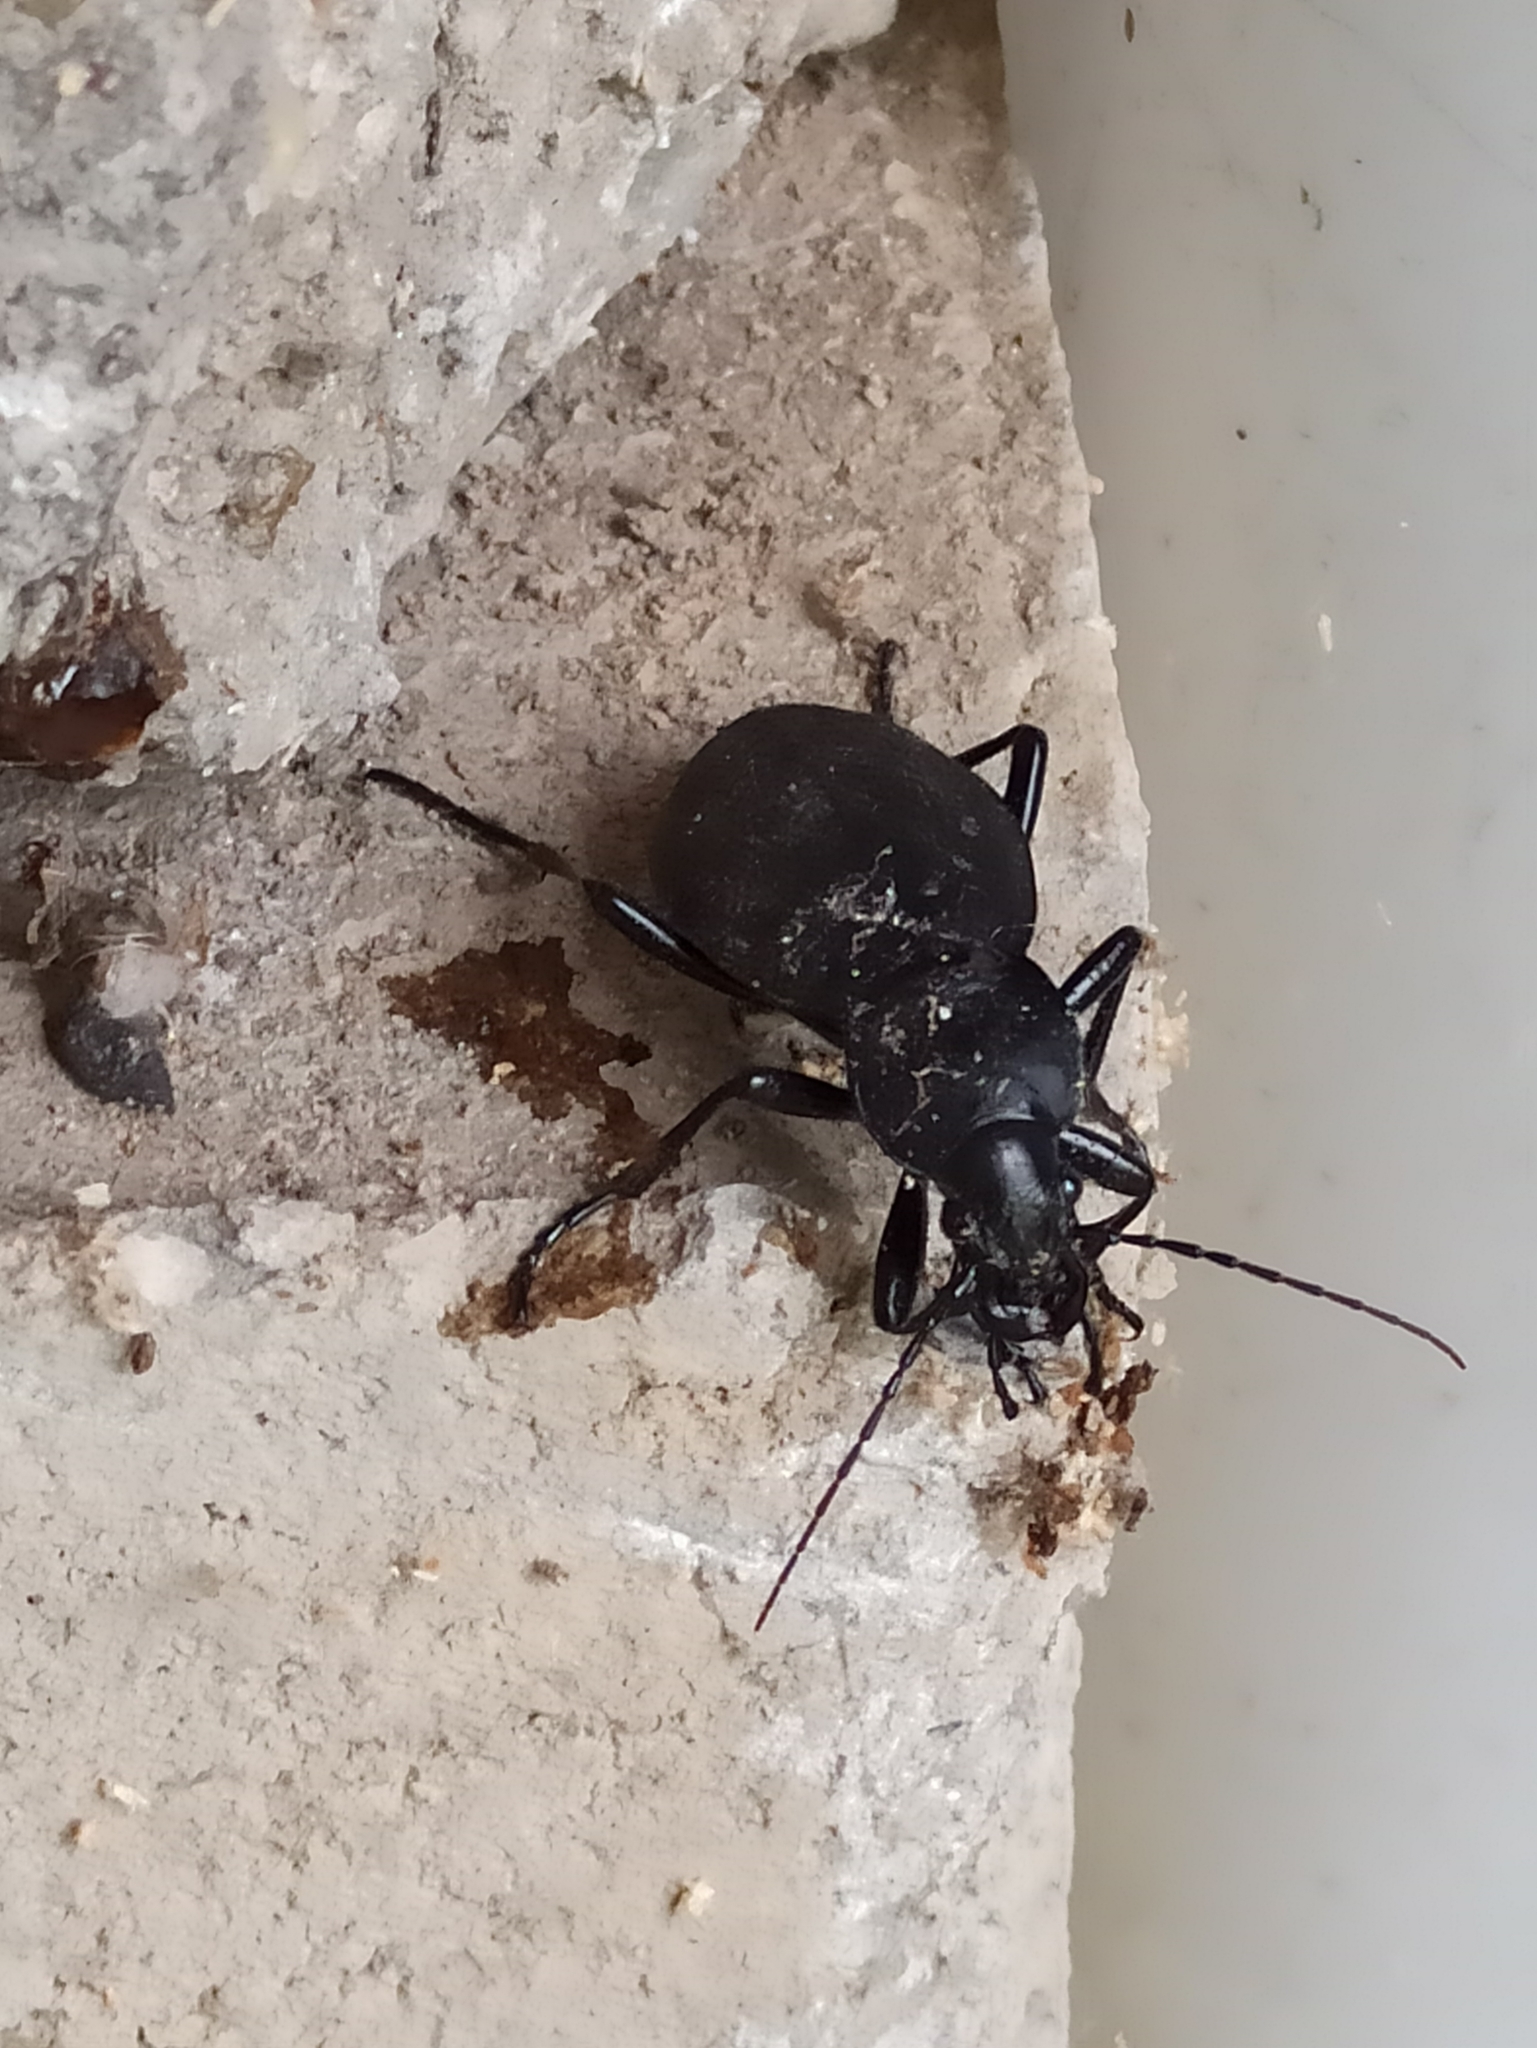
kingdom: Animalia
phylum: Arthropoda
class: Insecta
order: Coleoptera
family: Carabidae
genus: Carabus
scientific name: Carabus coriaceus
